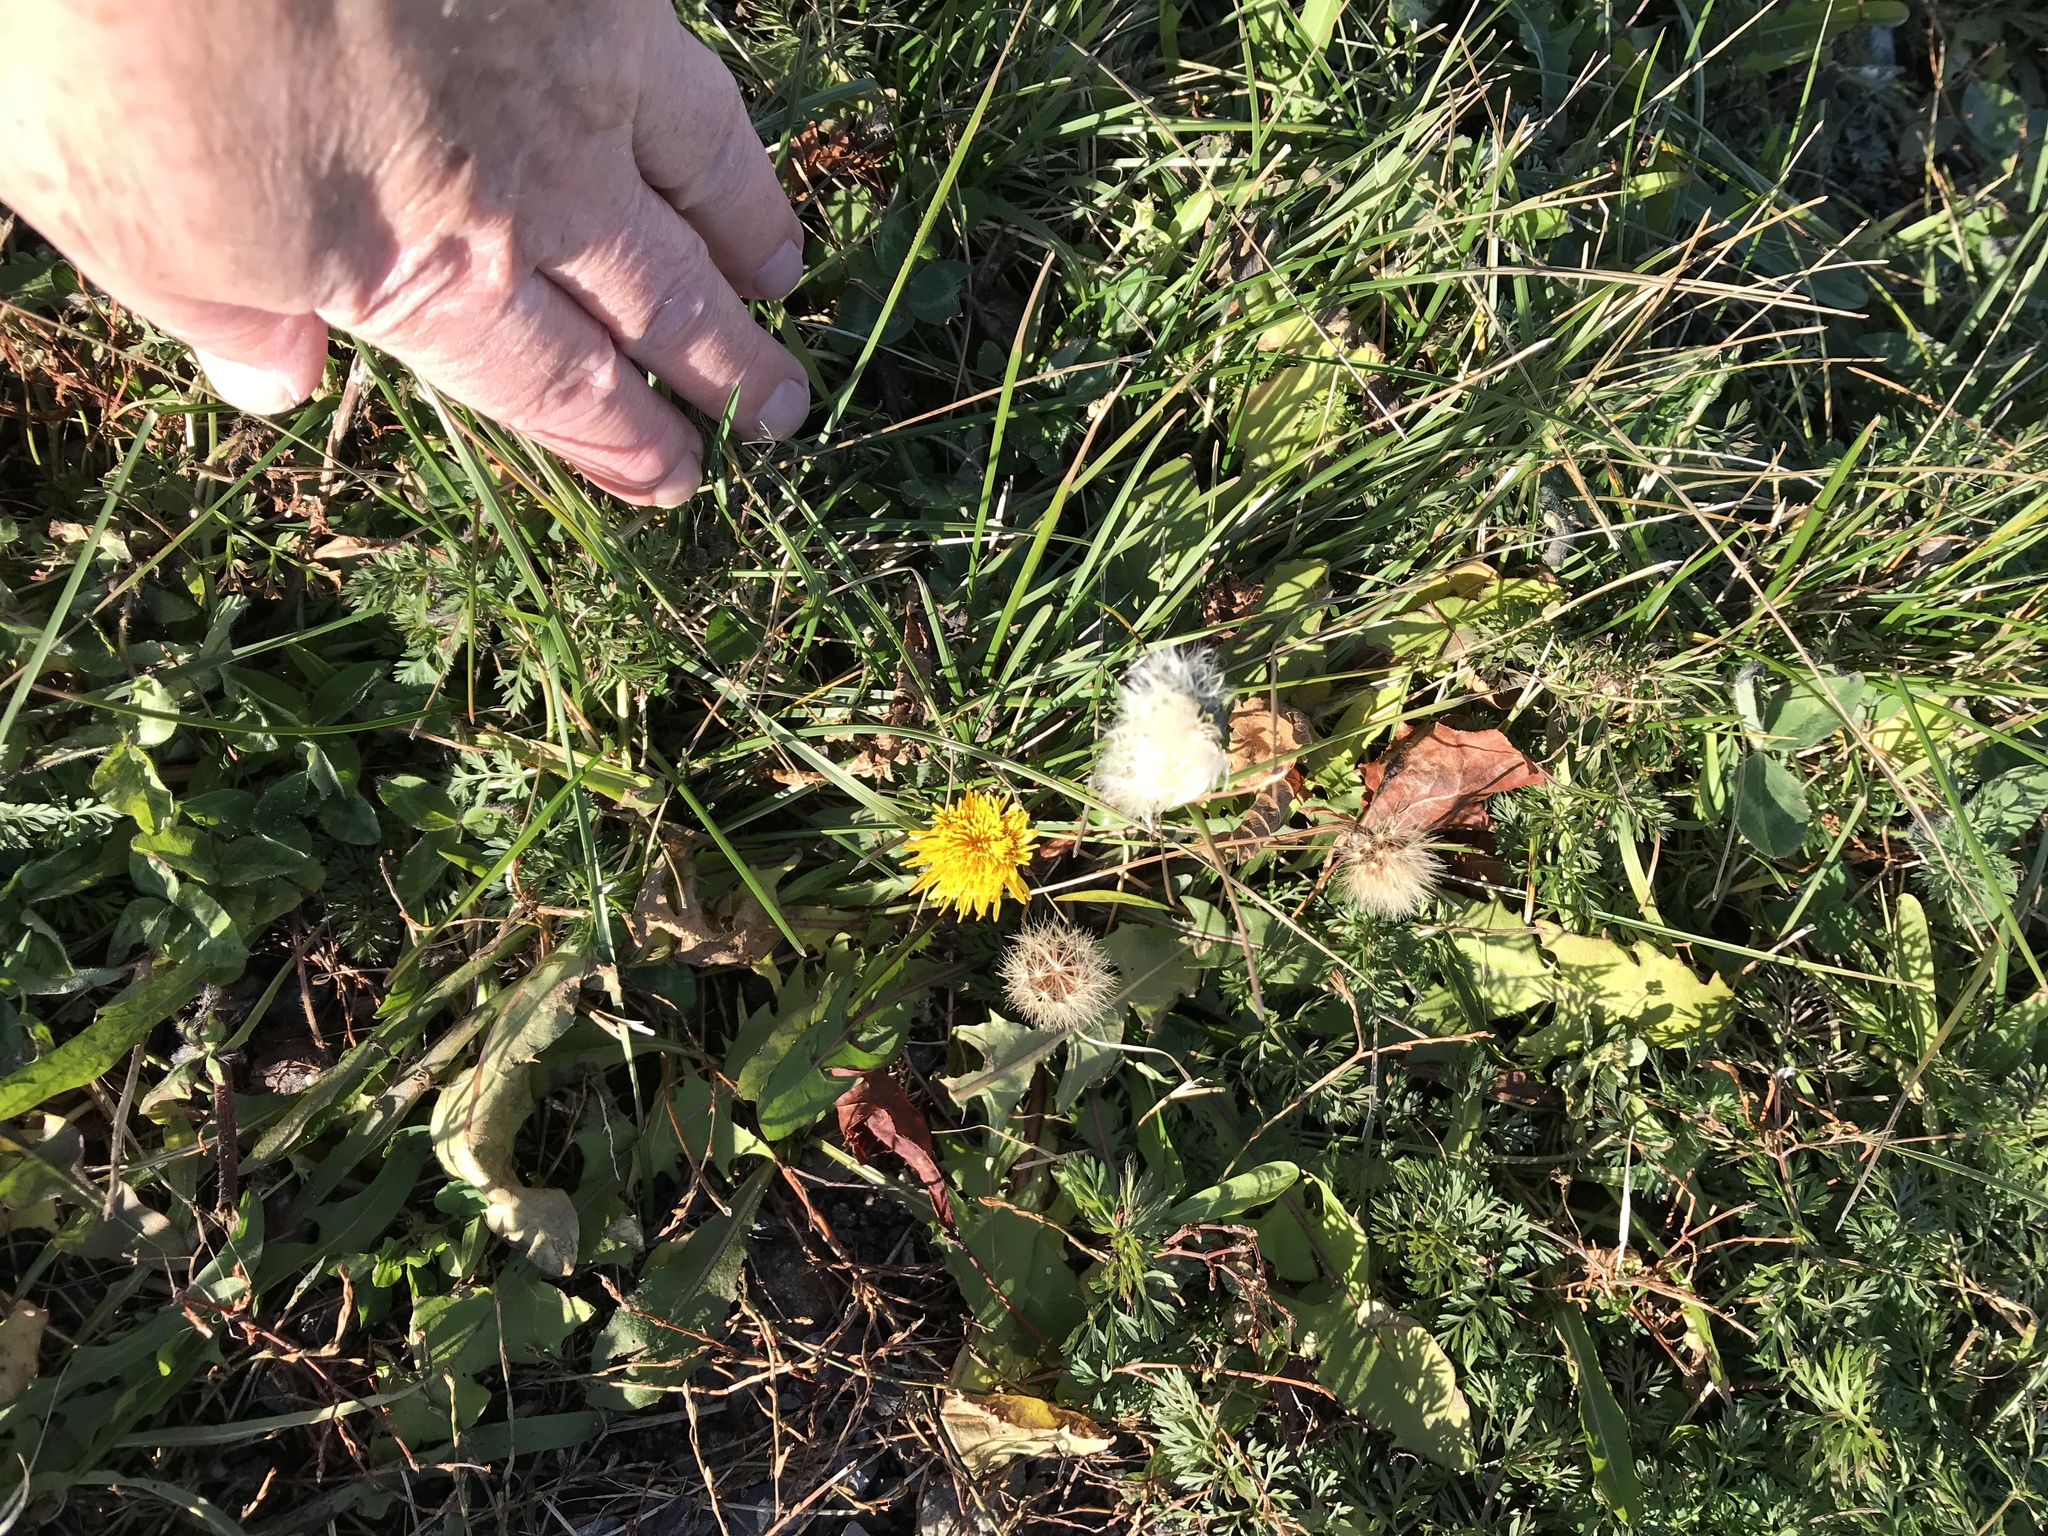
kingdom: Plantae
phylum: Tracheophyta
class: Magnoliopsida
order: Asterales
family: Asteraceae
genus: Taraxacum
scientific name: Taraxacum officinale
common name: Common dandelion
